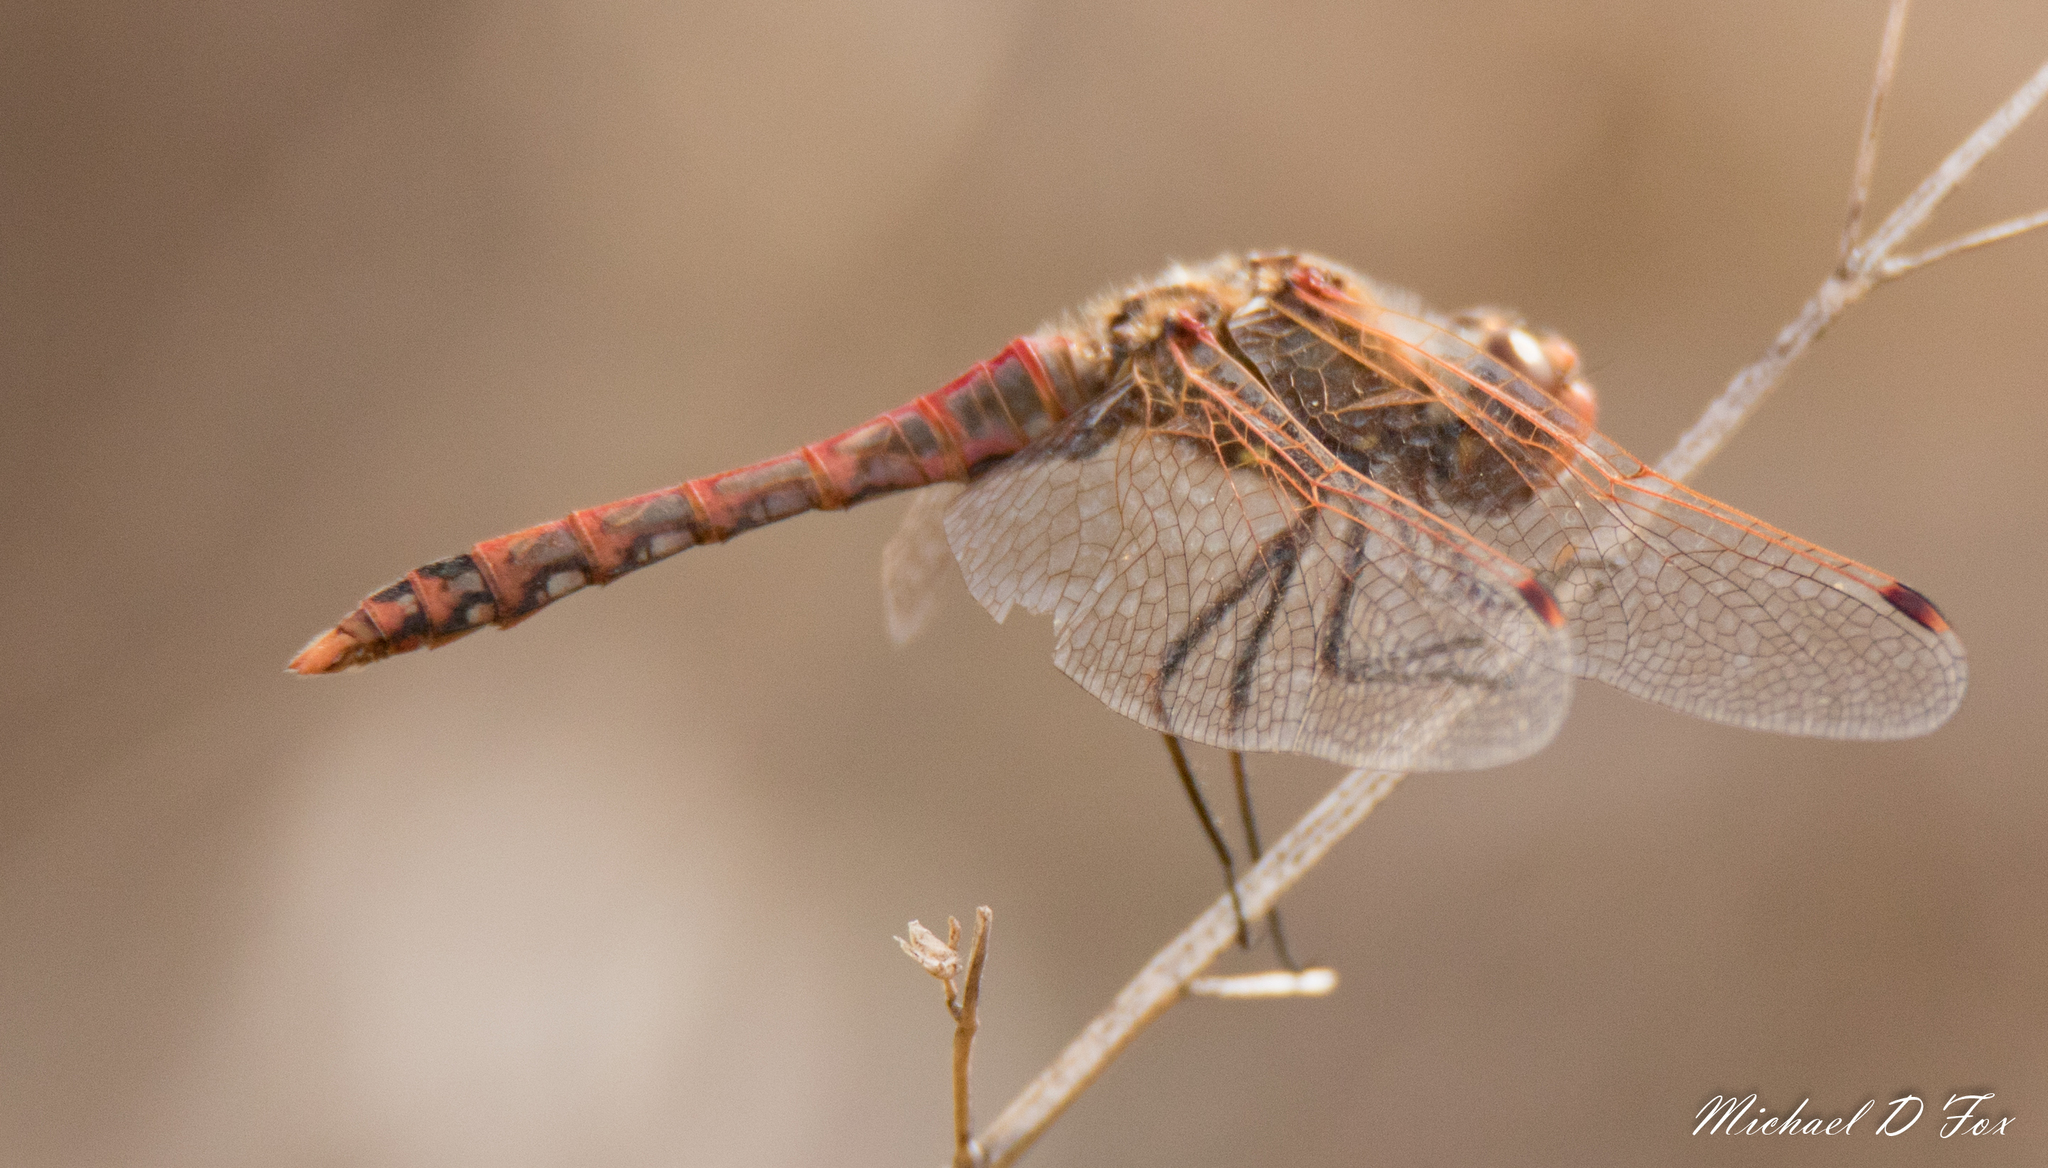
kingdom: Animalia
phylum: Arthropoda
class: Insecta
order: Odonata
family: Libellulidae
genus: Sympetrum
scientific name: Sympetrum corruptum
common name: Variegated meadowhawk
